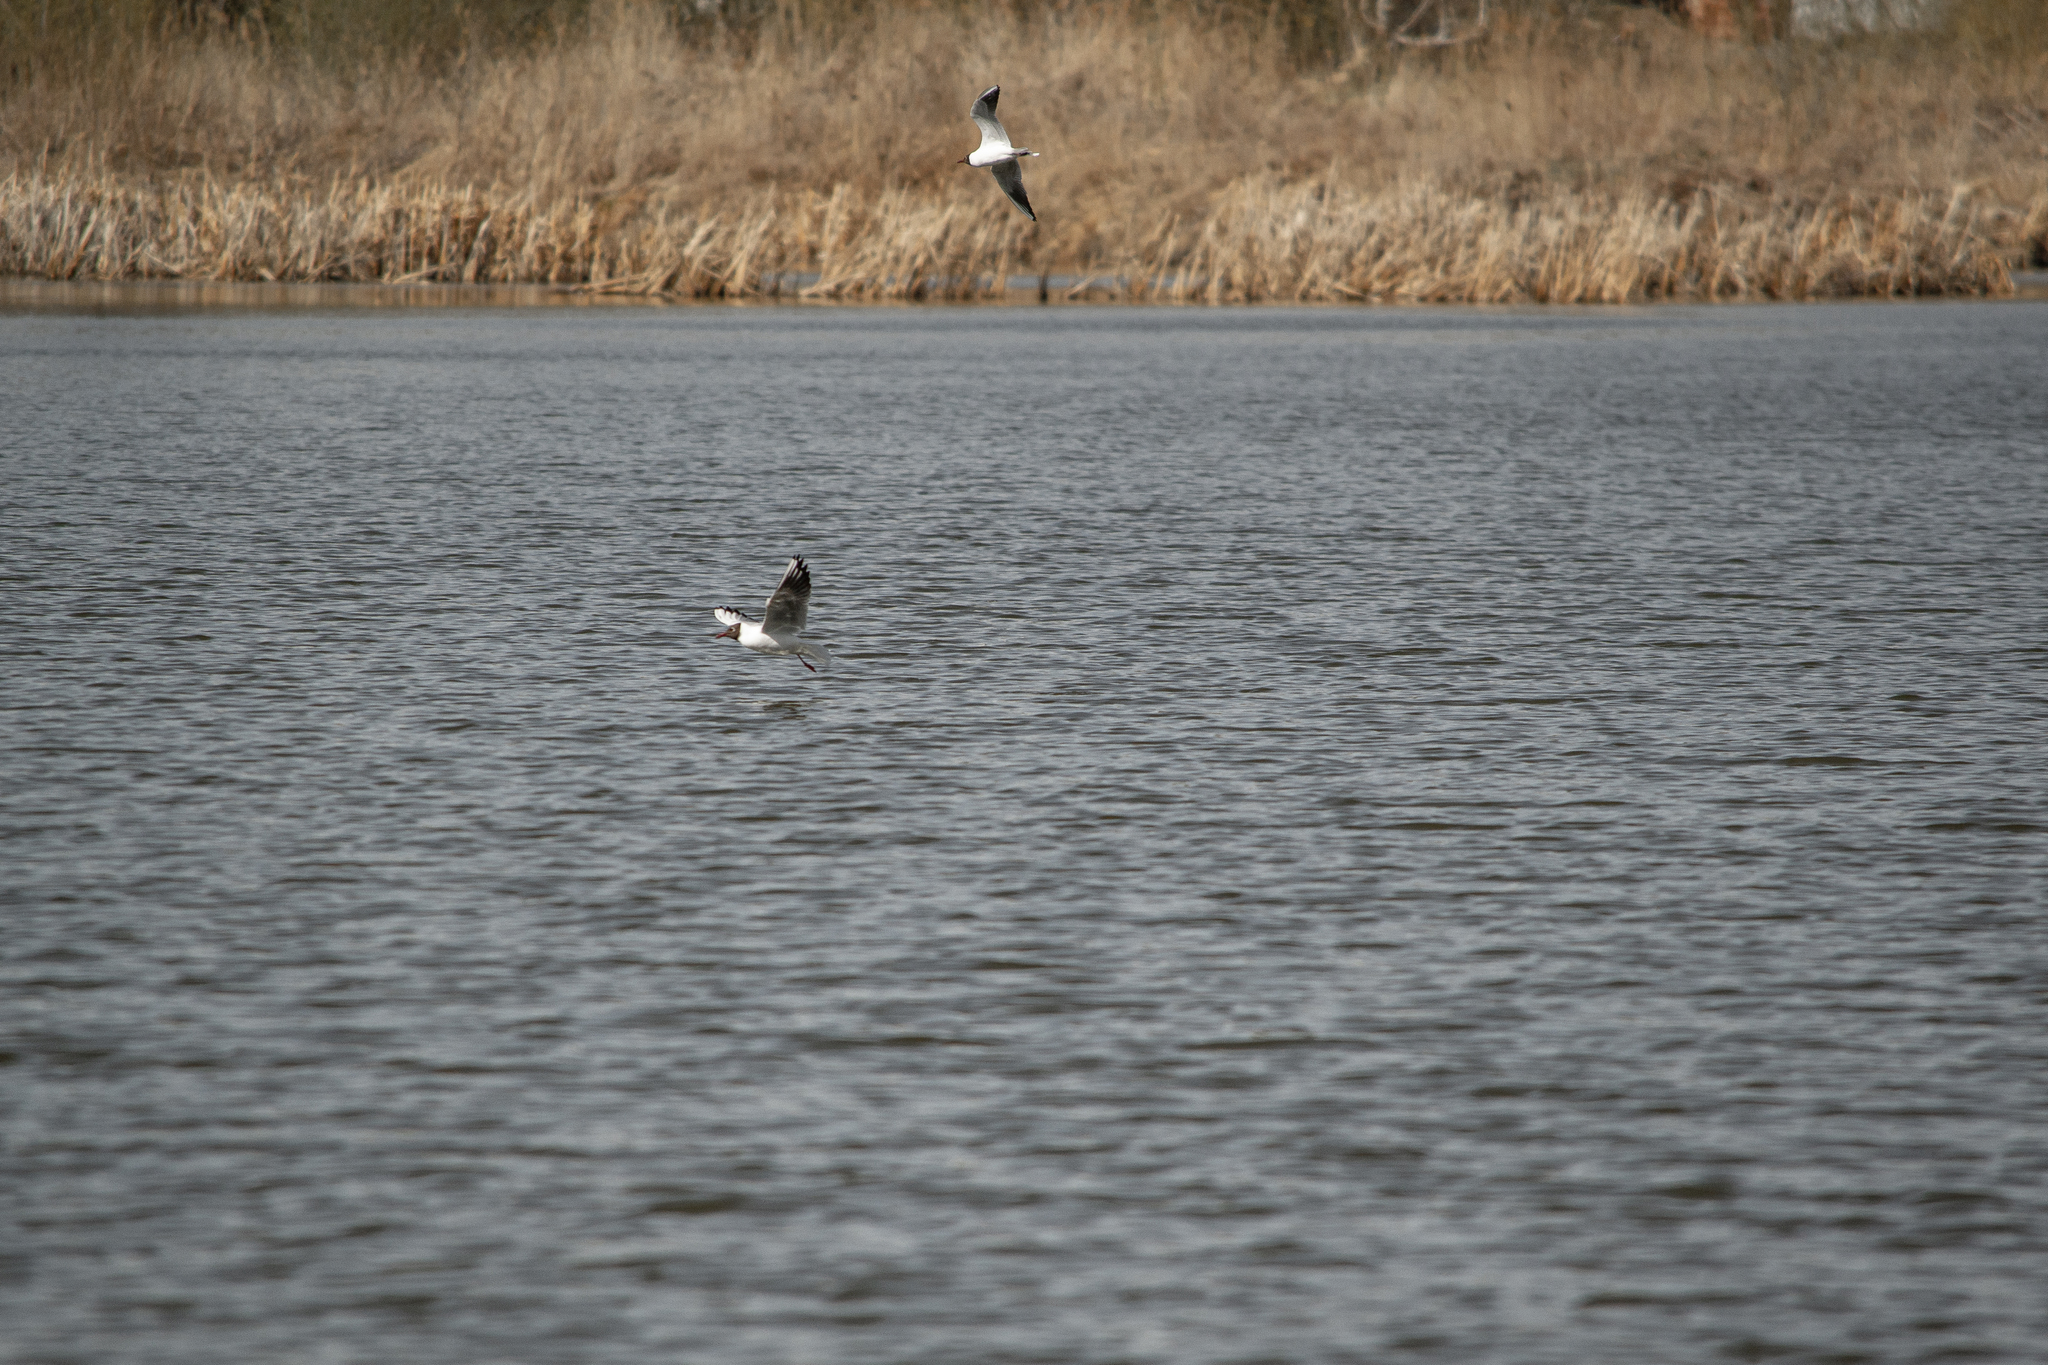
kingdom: Animalia
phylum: Chordata
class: Aves
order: Charadriiformes
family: Laridae
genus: Chroicocephalus
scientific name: Chroicocephalus ridibundus
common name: Black-headed gull
